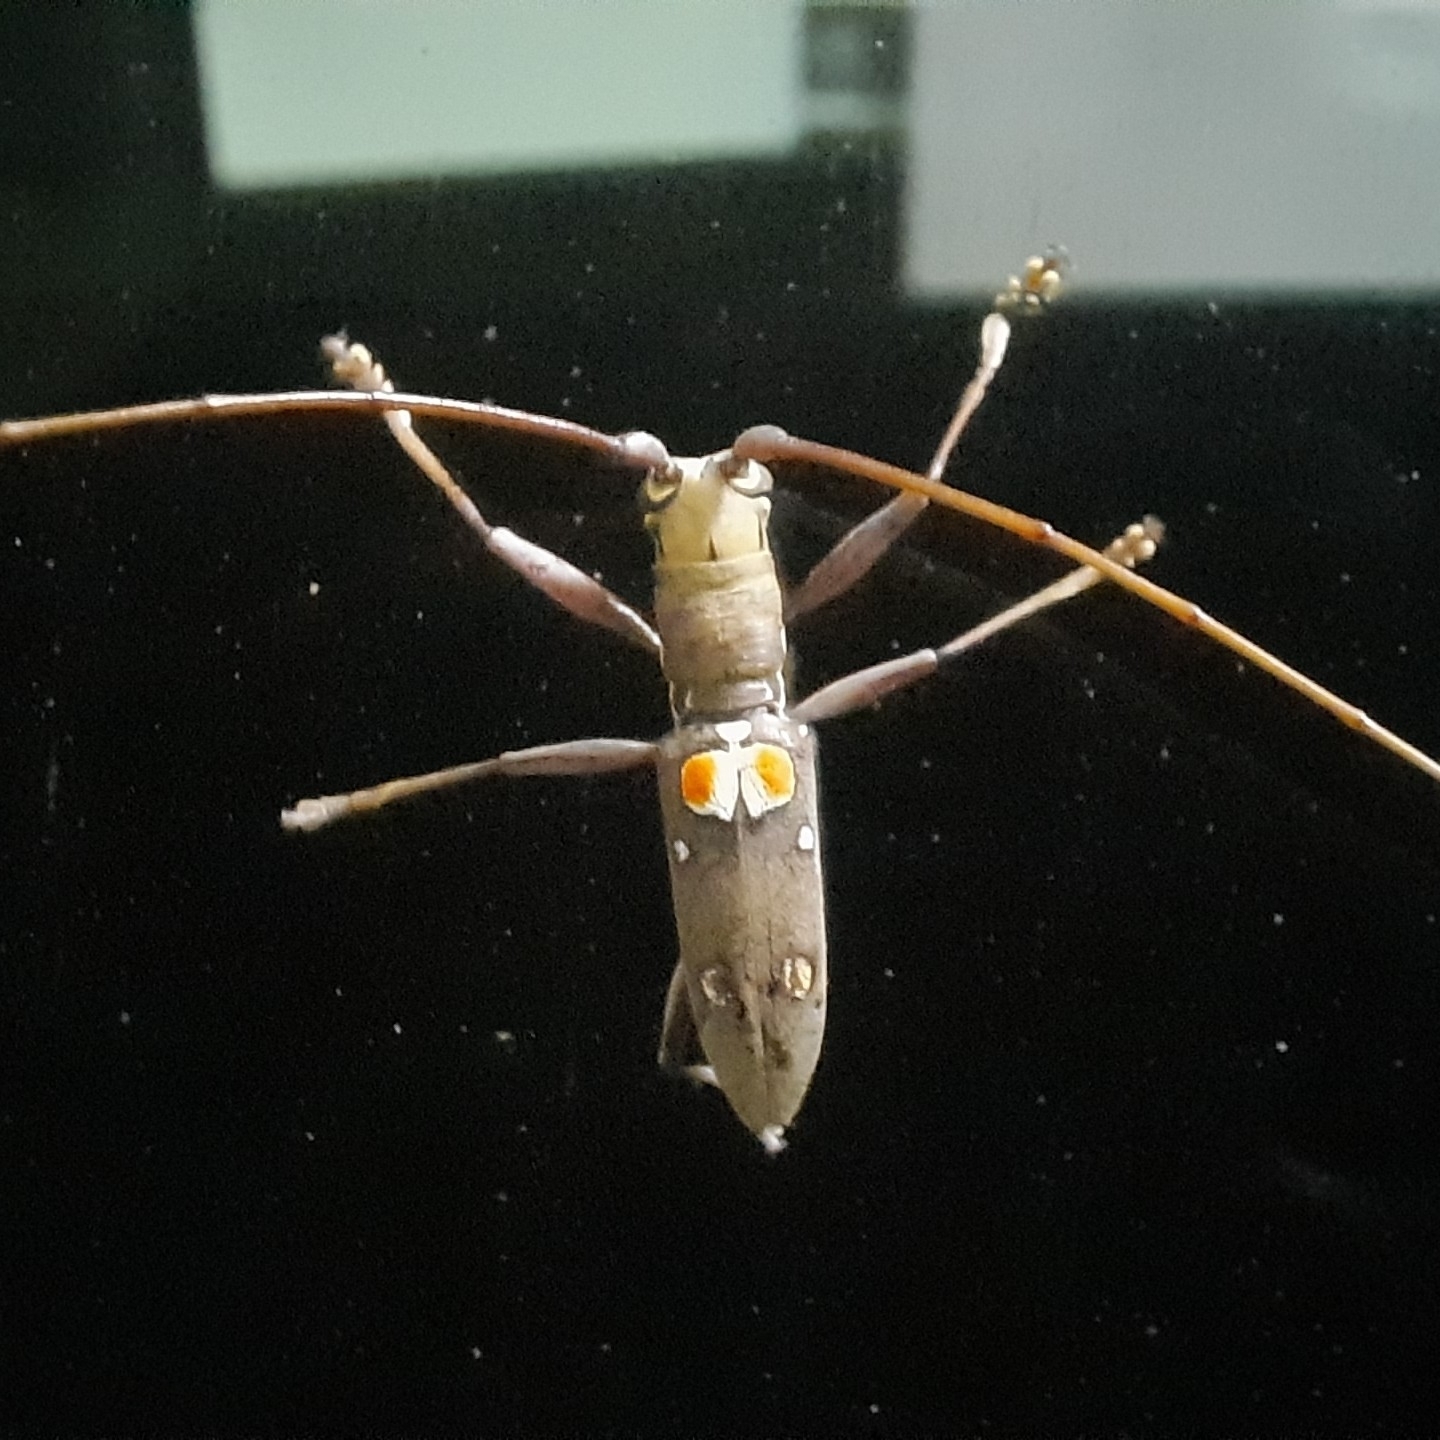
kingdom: Animalia
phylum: Arthropoda
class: Insecta
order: Coleoptera
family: Cerambycidae
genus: Olenecamptus
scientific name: Olenecamptus bilobus
